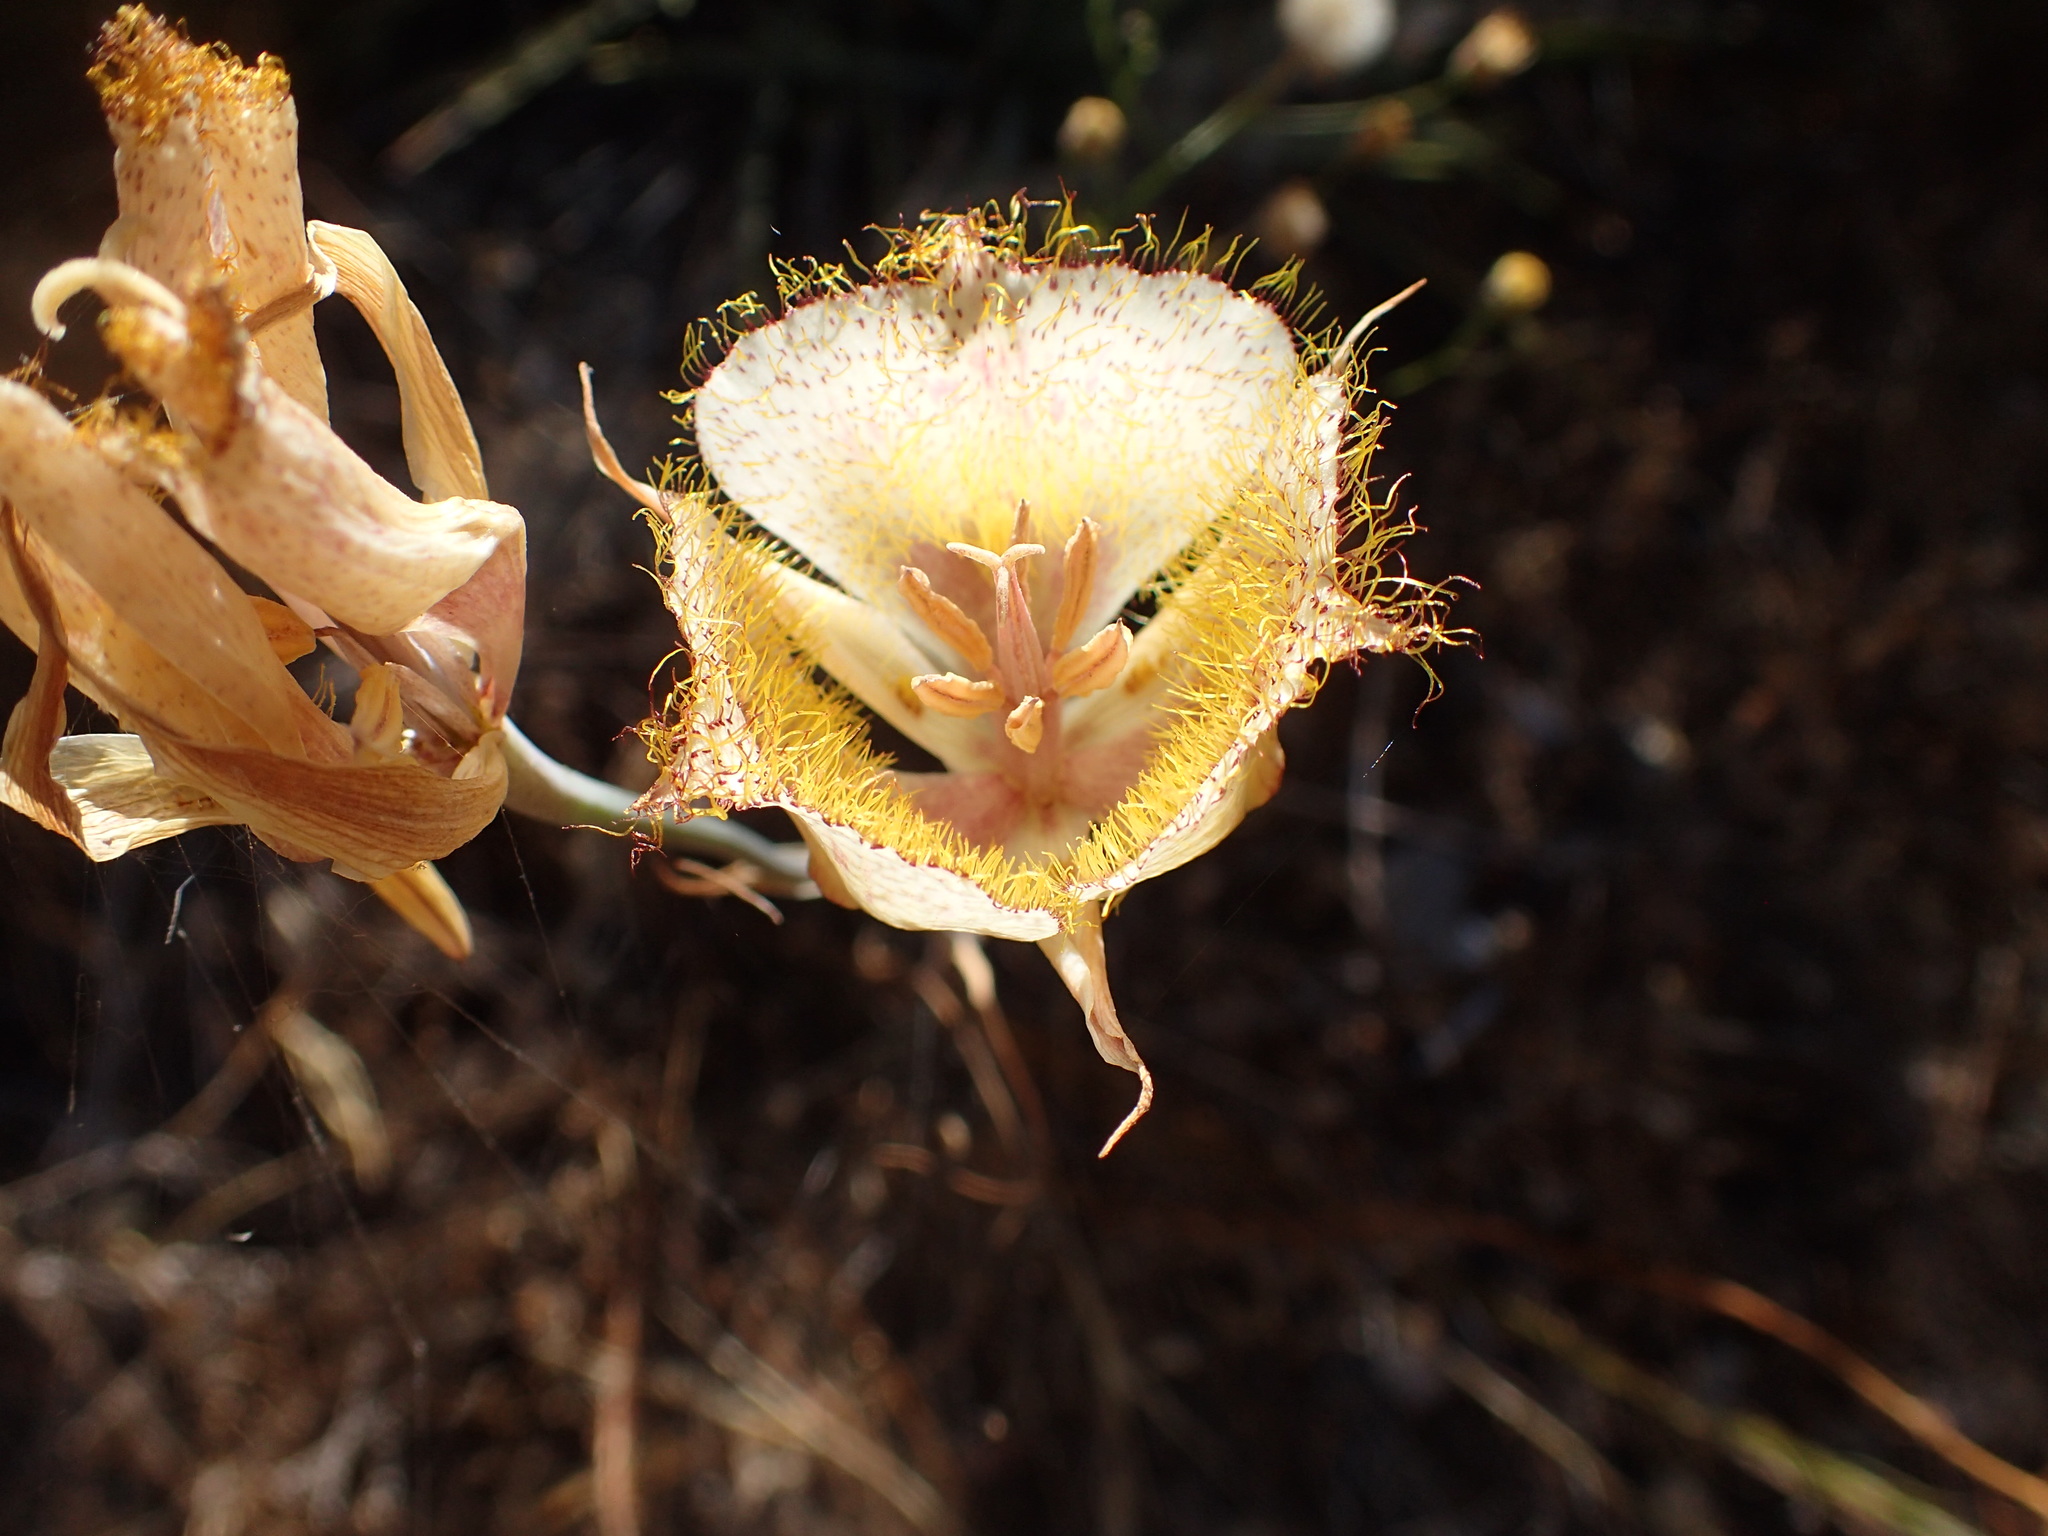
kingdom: Plantae
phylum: Tracheophyta
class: Liliopsida
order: Liliales
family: Liliaceae
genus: Calochortus
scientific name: Calochortus fimbriatus
